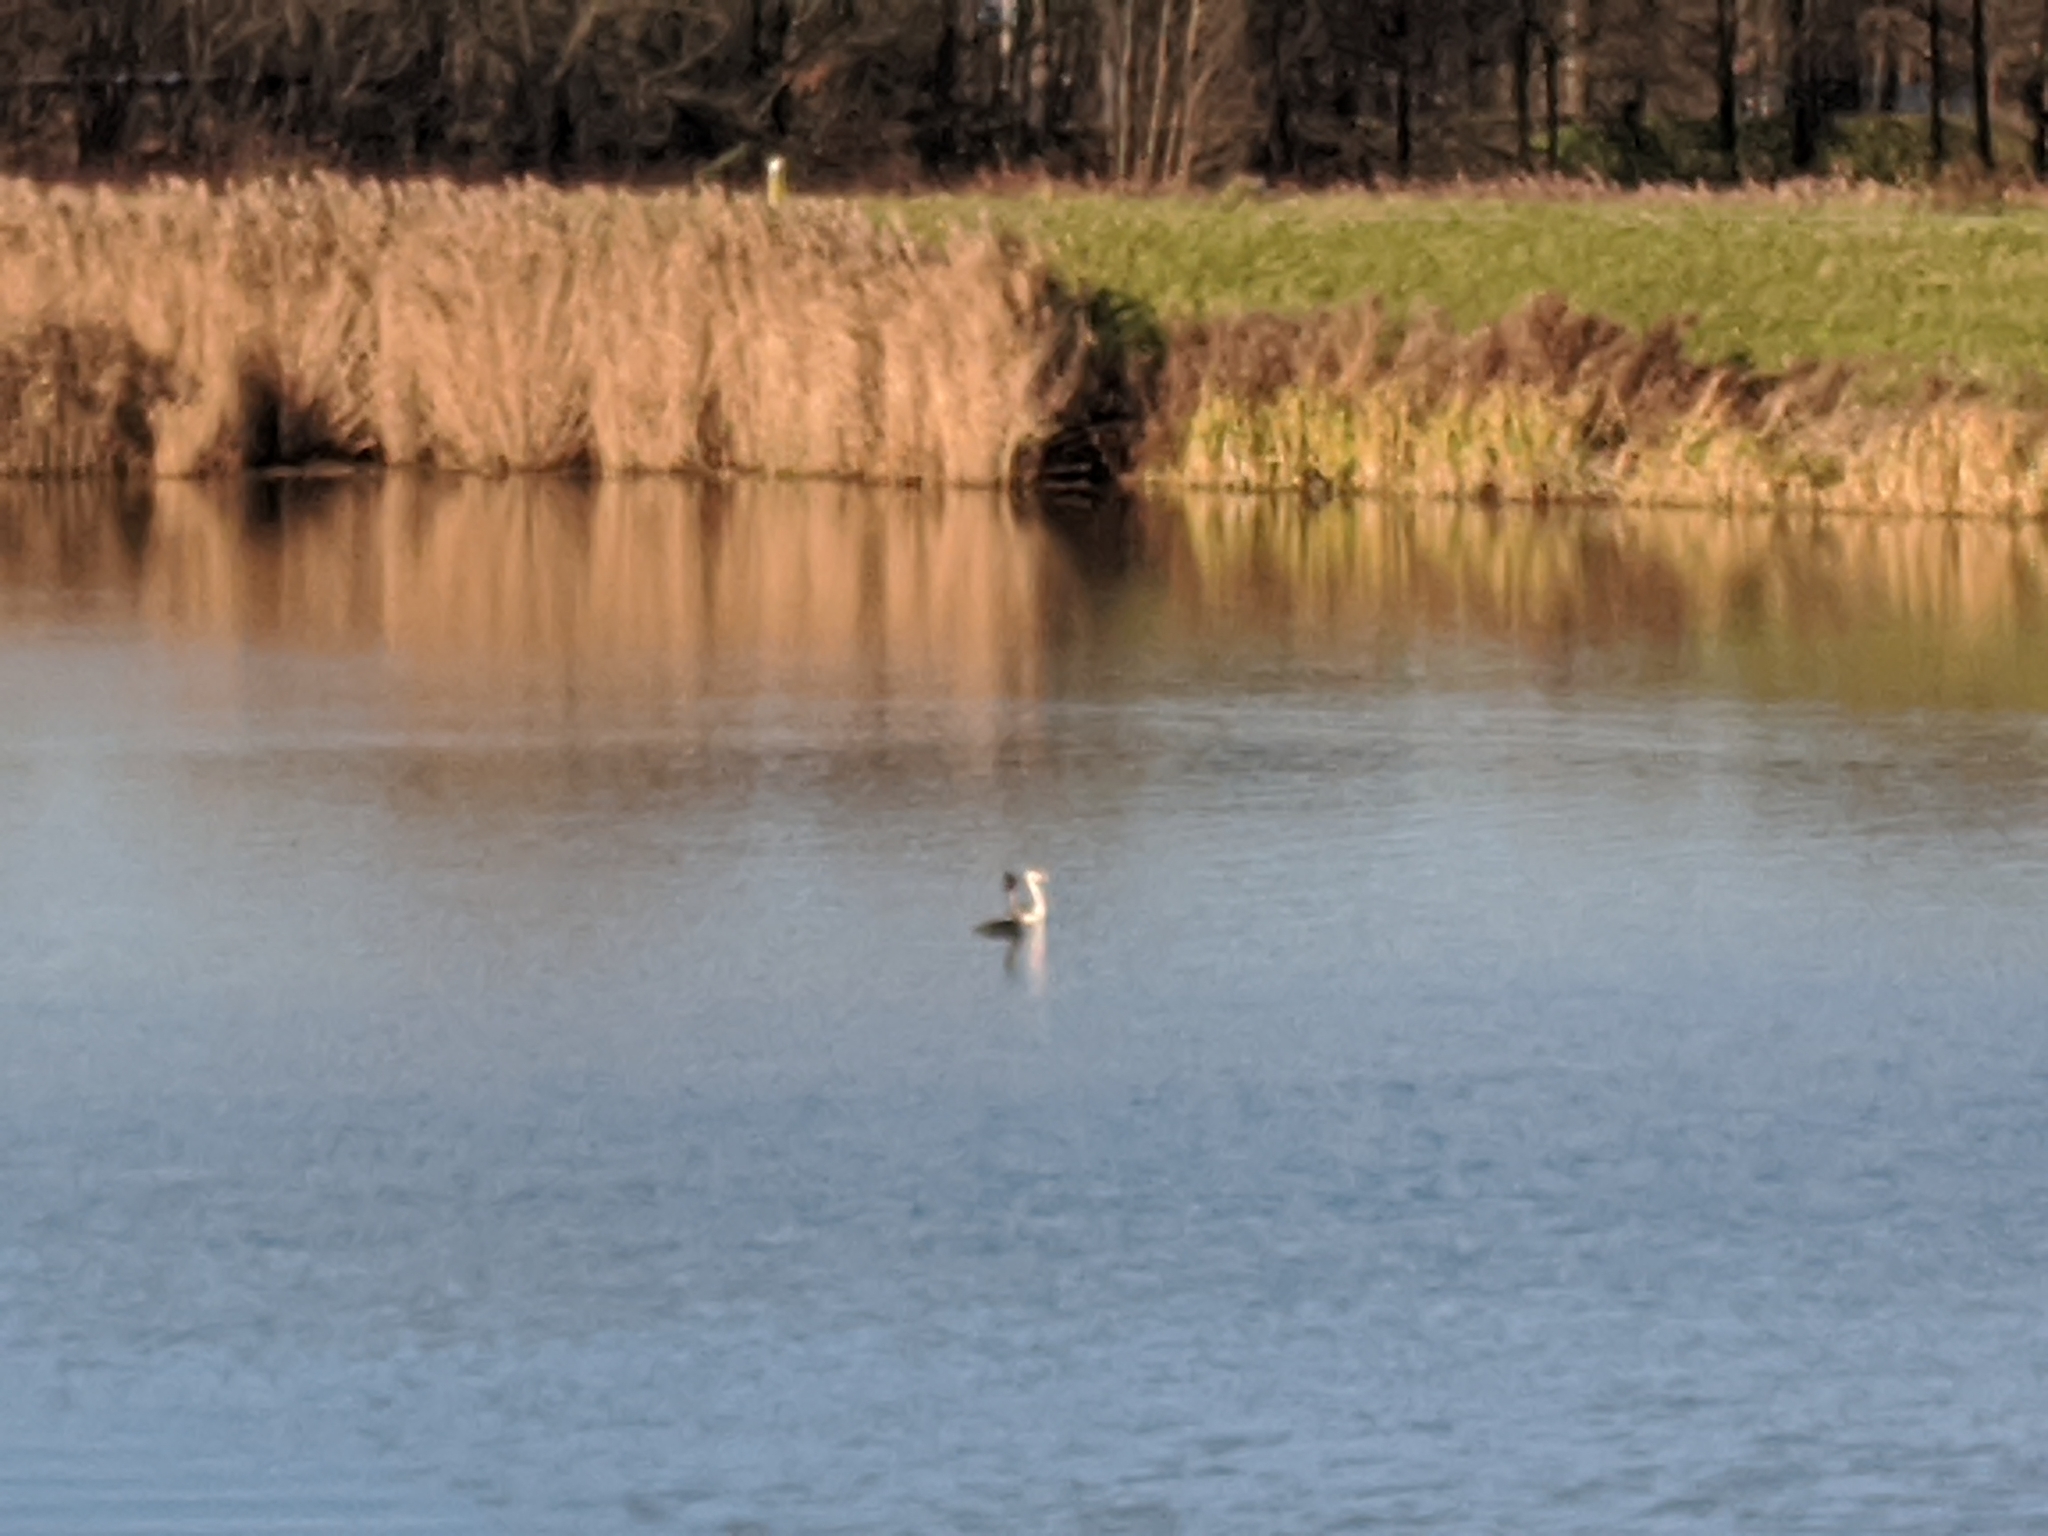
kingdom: Animalia
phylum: Chordata
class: Aves
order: Podicipediformes
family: Podicipedidae
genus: Podiceps
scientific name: Podiceps cristatus
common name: Great crested grebe
